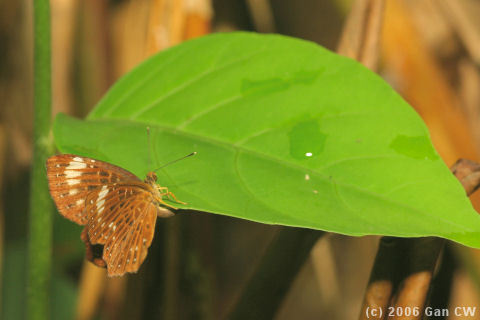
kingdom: Animalia
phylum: Arthropoda
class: Insecta
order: Lepidoptera
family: Riodinidae
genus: Zemeros
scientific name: Zemeros flegyas
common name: Punchinello
